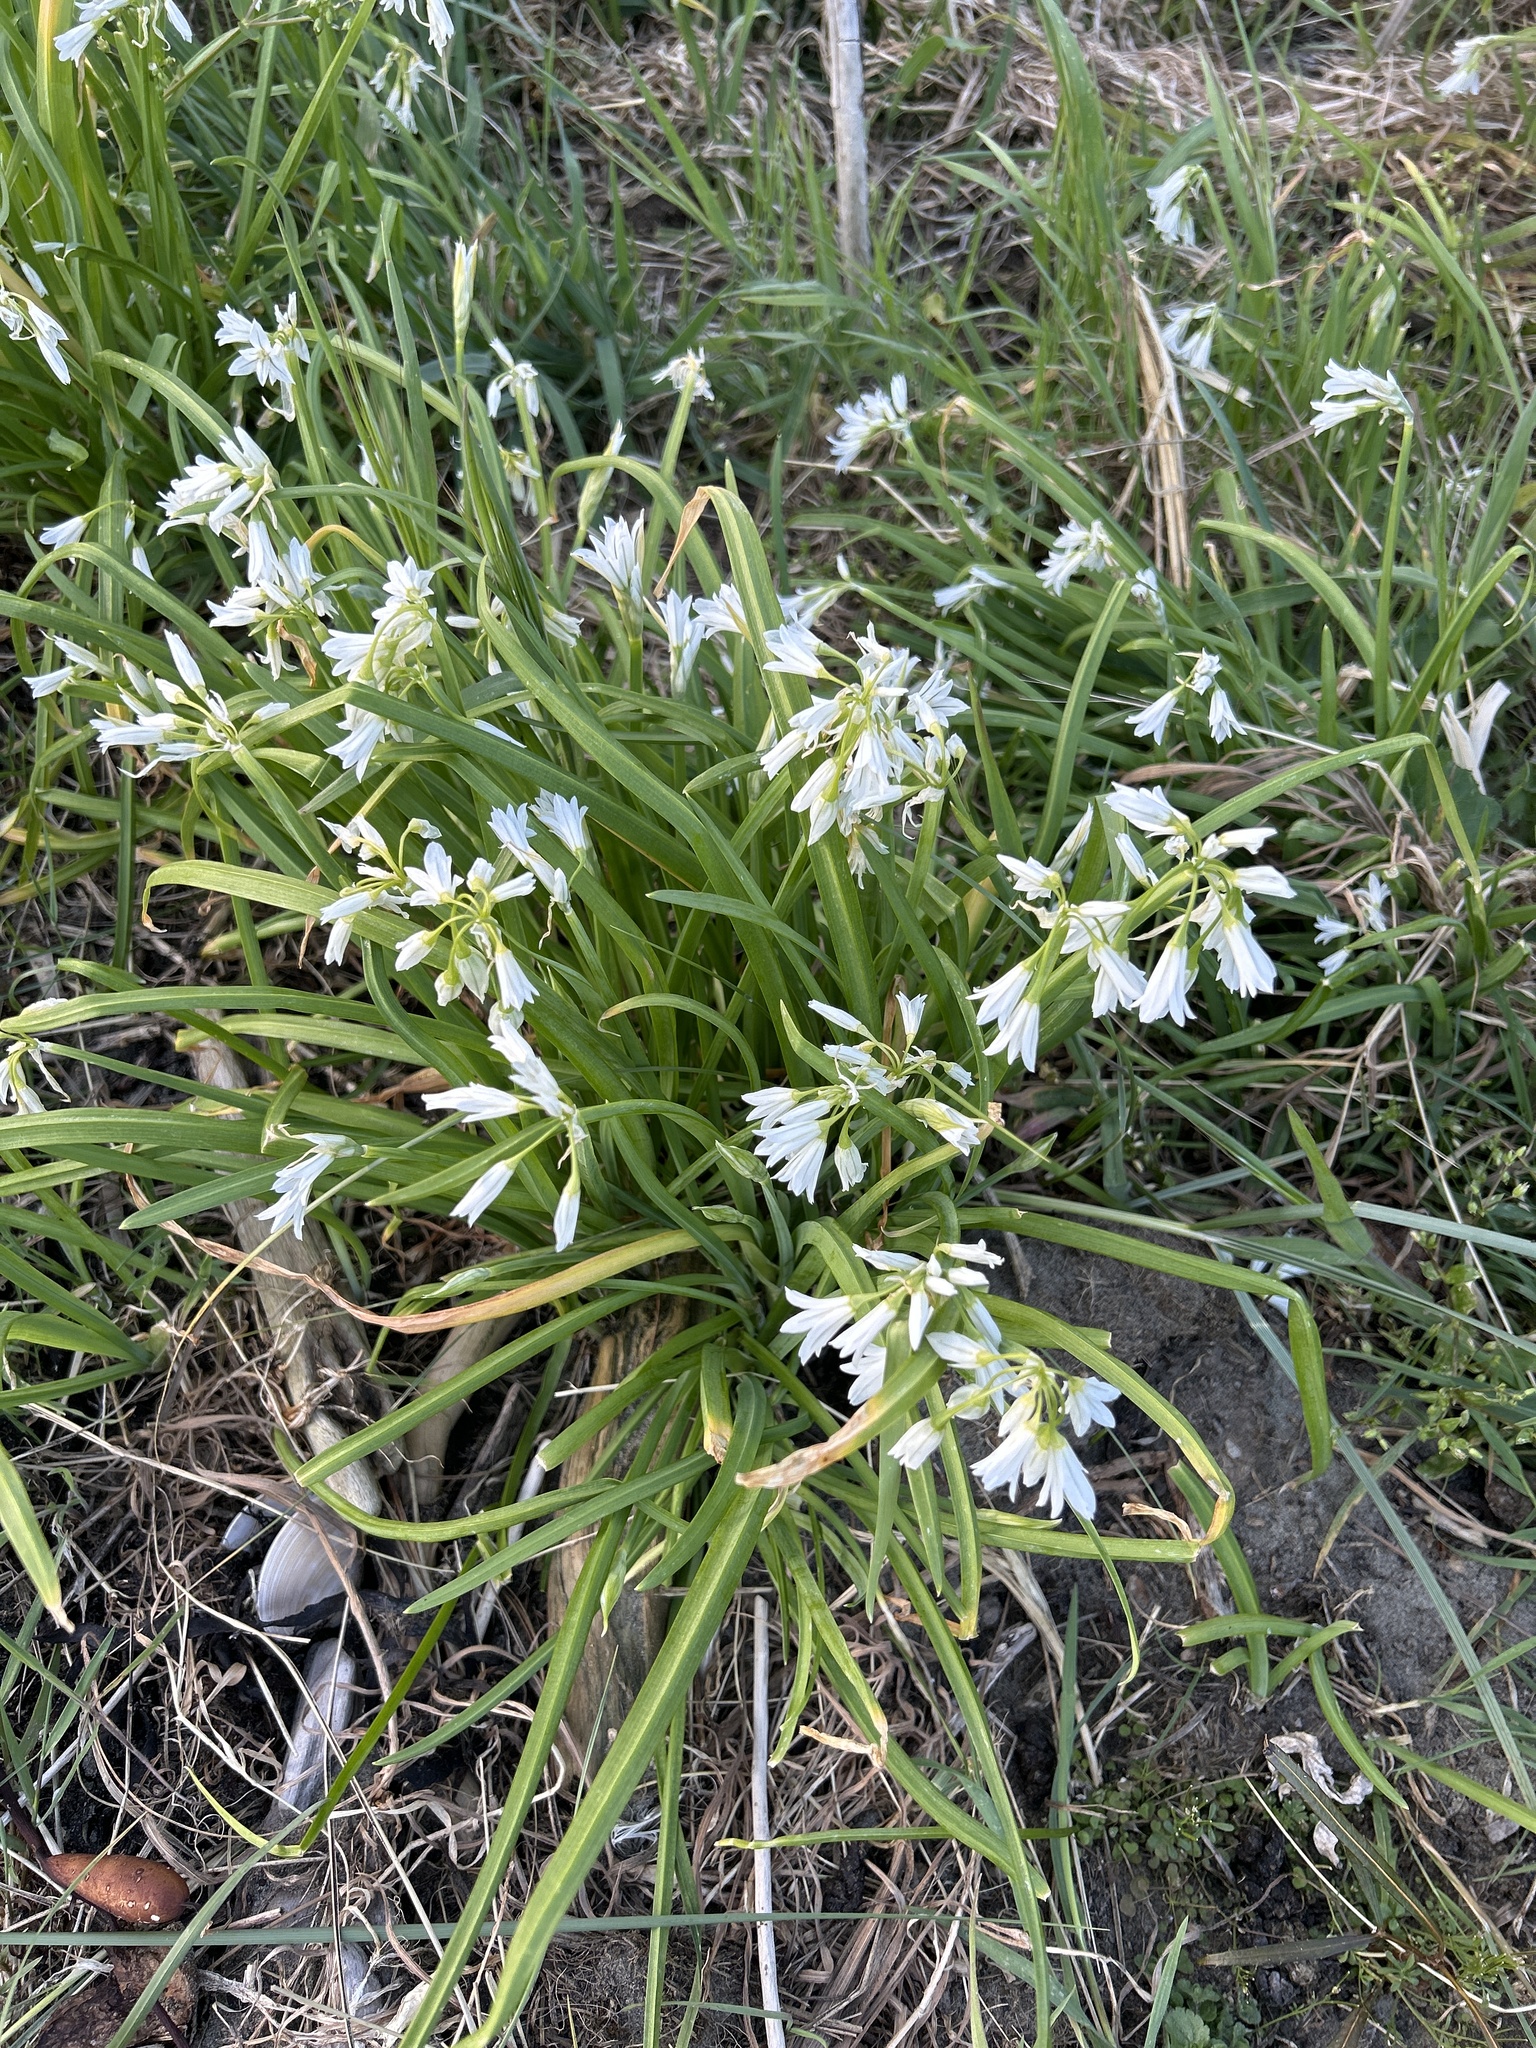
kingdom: Plantae
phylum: Tracheophyta
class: Liliopsida
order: Asparagales
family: Amaryllidaceae
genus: Allium
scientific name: Allium triquetrum
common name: Three-cornered garlic
